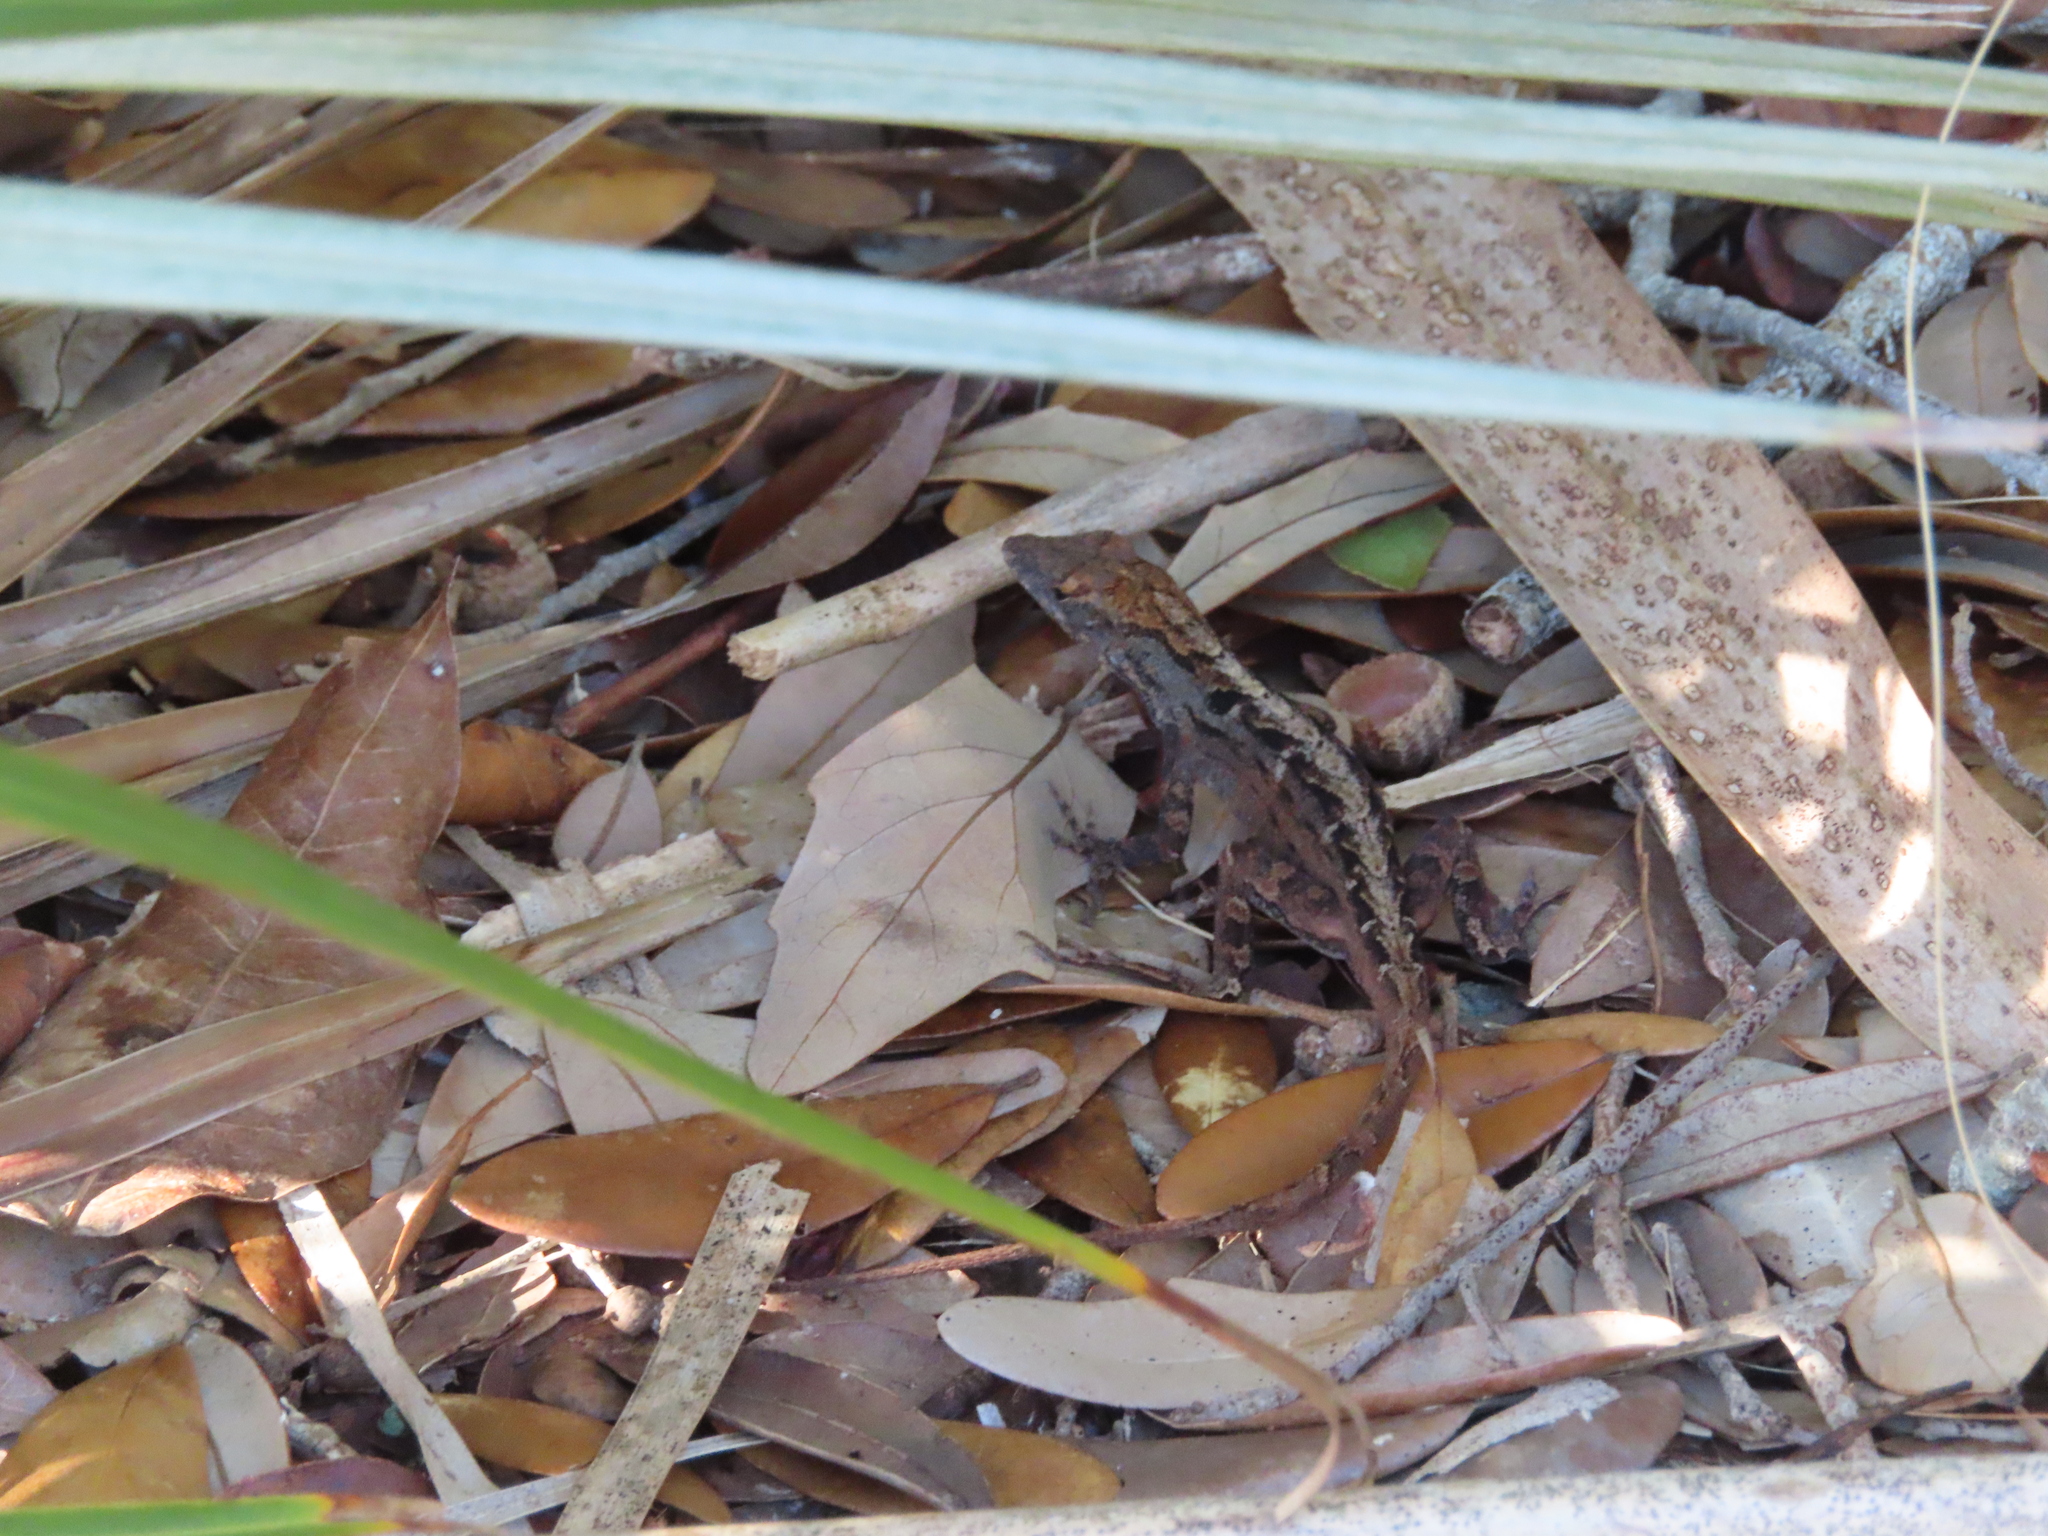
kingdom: Animalia
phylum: Chordata
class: Squamata
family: Dactyloidae
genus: Anolis
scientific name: Anolis sagrei
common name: Brown anole
